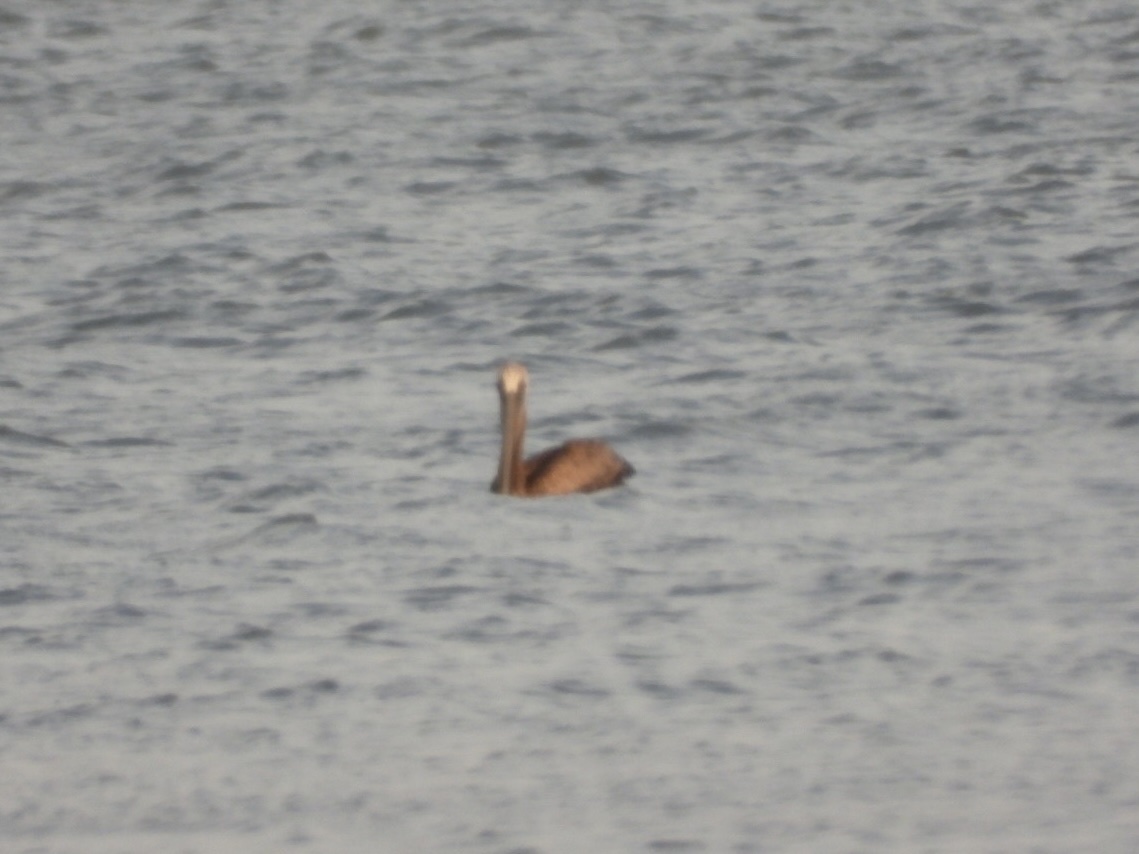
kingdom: Animalia
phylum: Chordata
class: Aves
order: Pelecaniformes
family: Pelecanidae
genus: Pelecanus
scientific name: Pelecanus occidentalis
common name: Brown pelican
